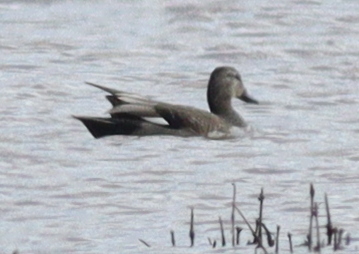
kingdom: Animalia
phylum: Chordata
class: Aves
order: Anseriformes
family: Anatidae
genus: Mareca
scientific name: Mareca strepera
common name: Gadwall
